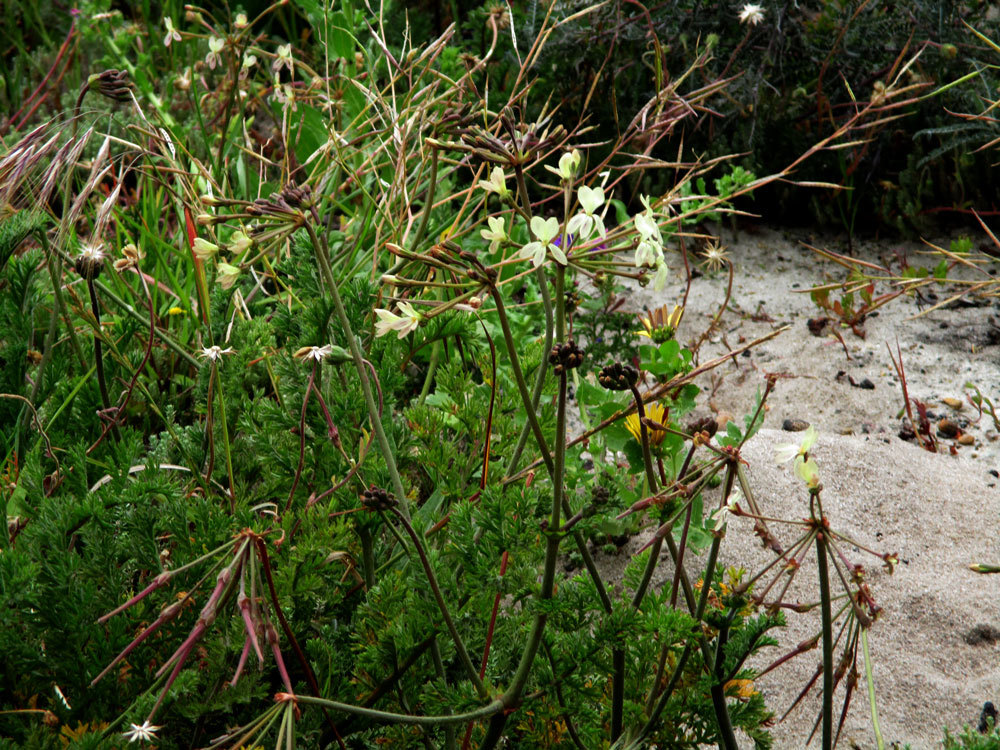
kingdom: Plantae
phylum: Tracheophyta
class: Magnoliopsida
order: Geraniales
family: Geraniaceae
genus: Pelargonium
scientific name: Pelargonium triste
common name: Night-scent pelargonium
